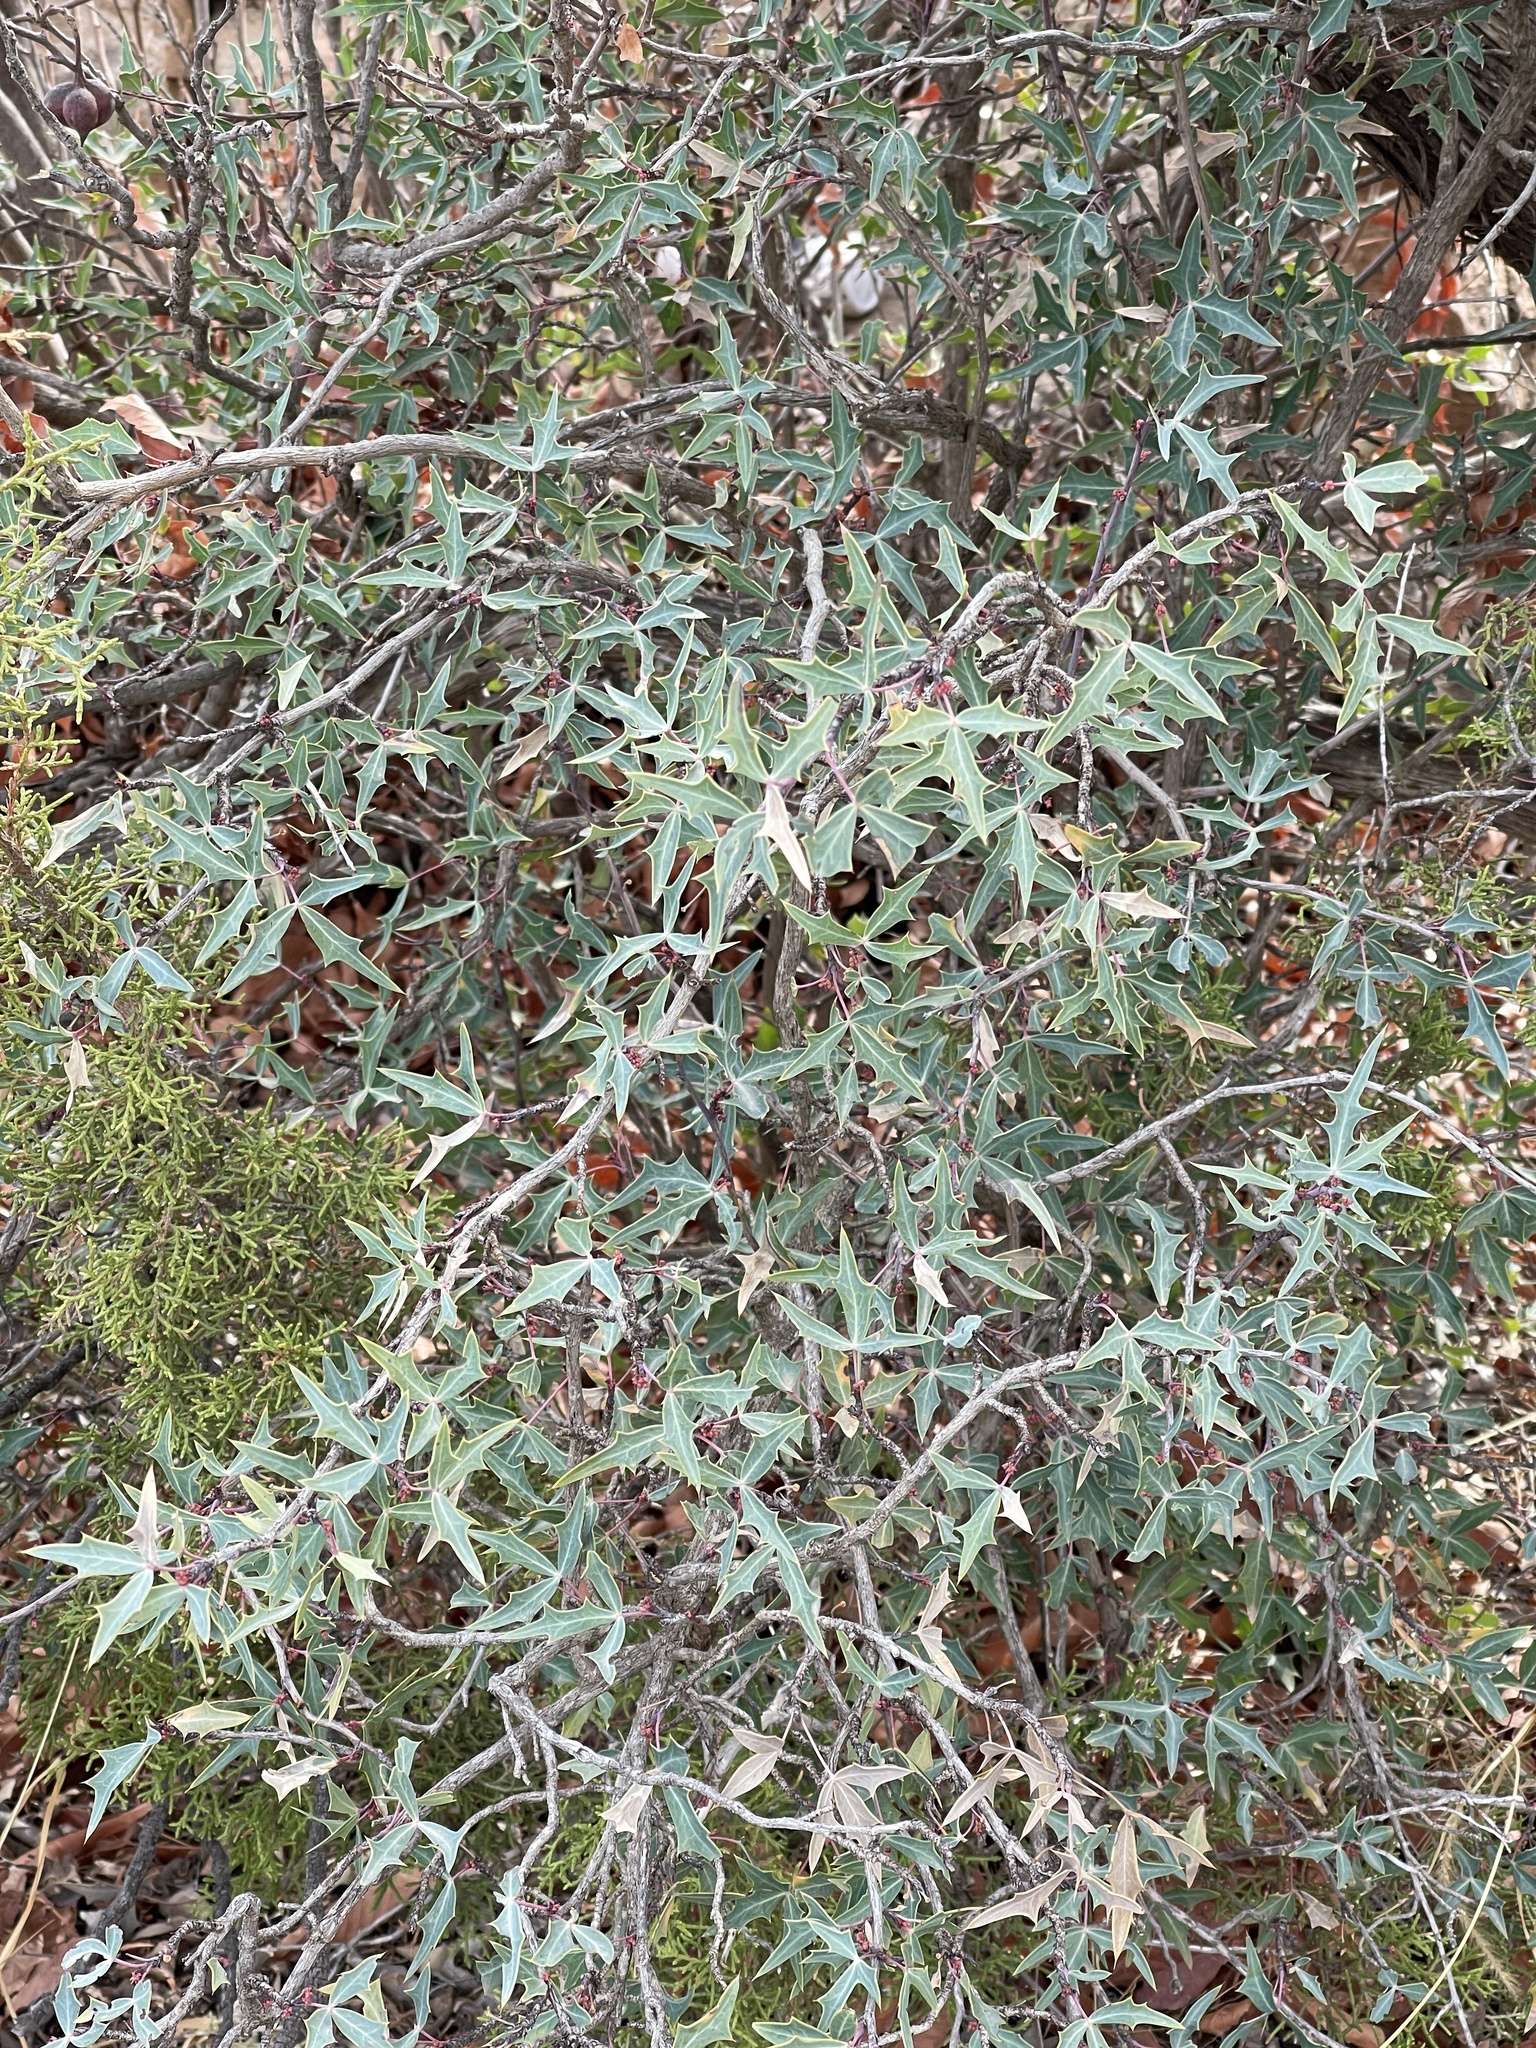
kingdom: Plantae
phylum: Tracheophyta
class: Magnoliopsida
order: Ranunculales
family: Berberidaceae
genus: Alloberberis
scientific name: Alloberberis trifoliolata
